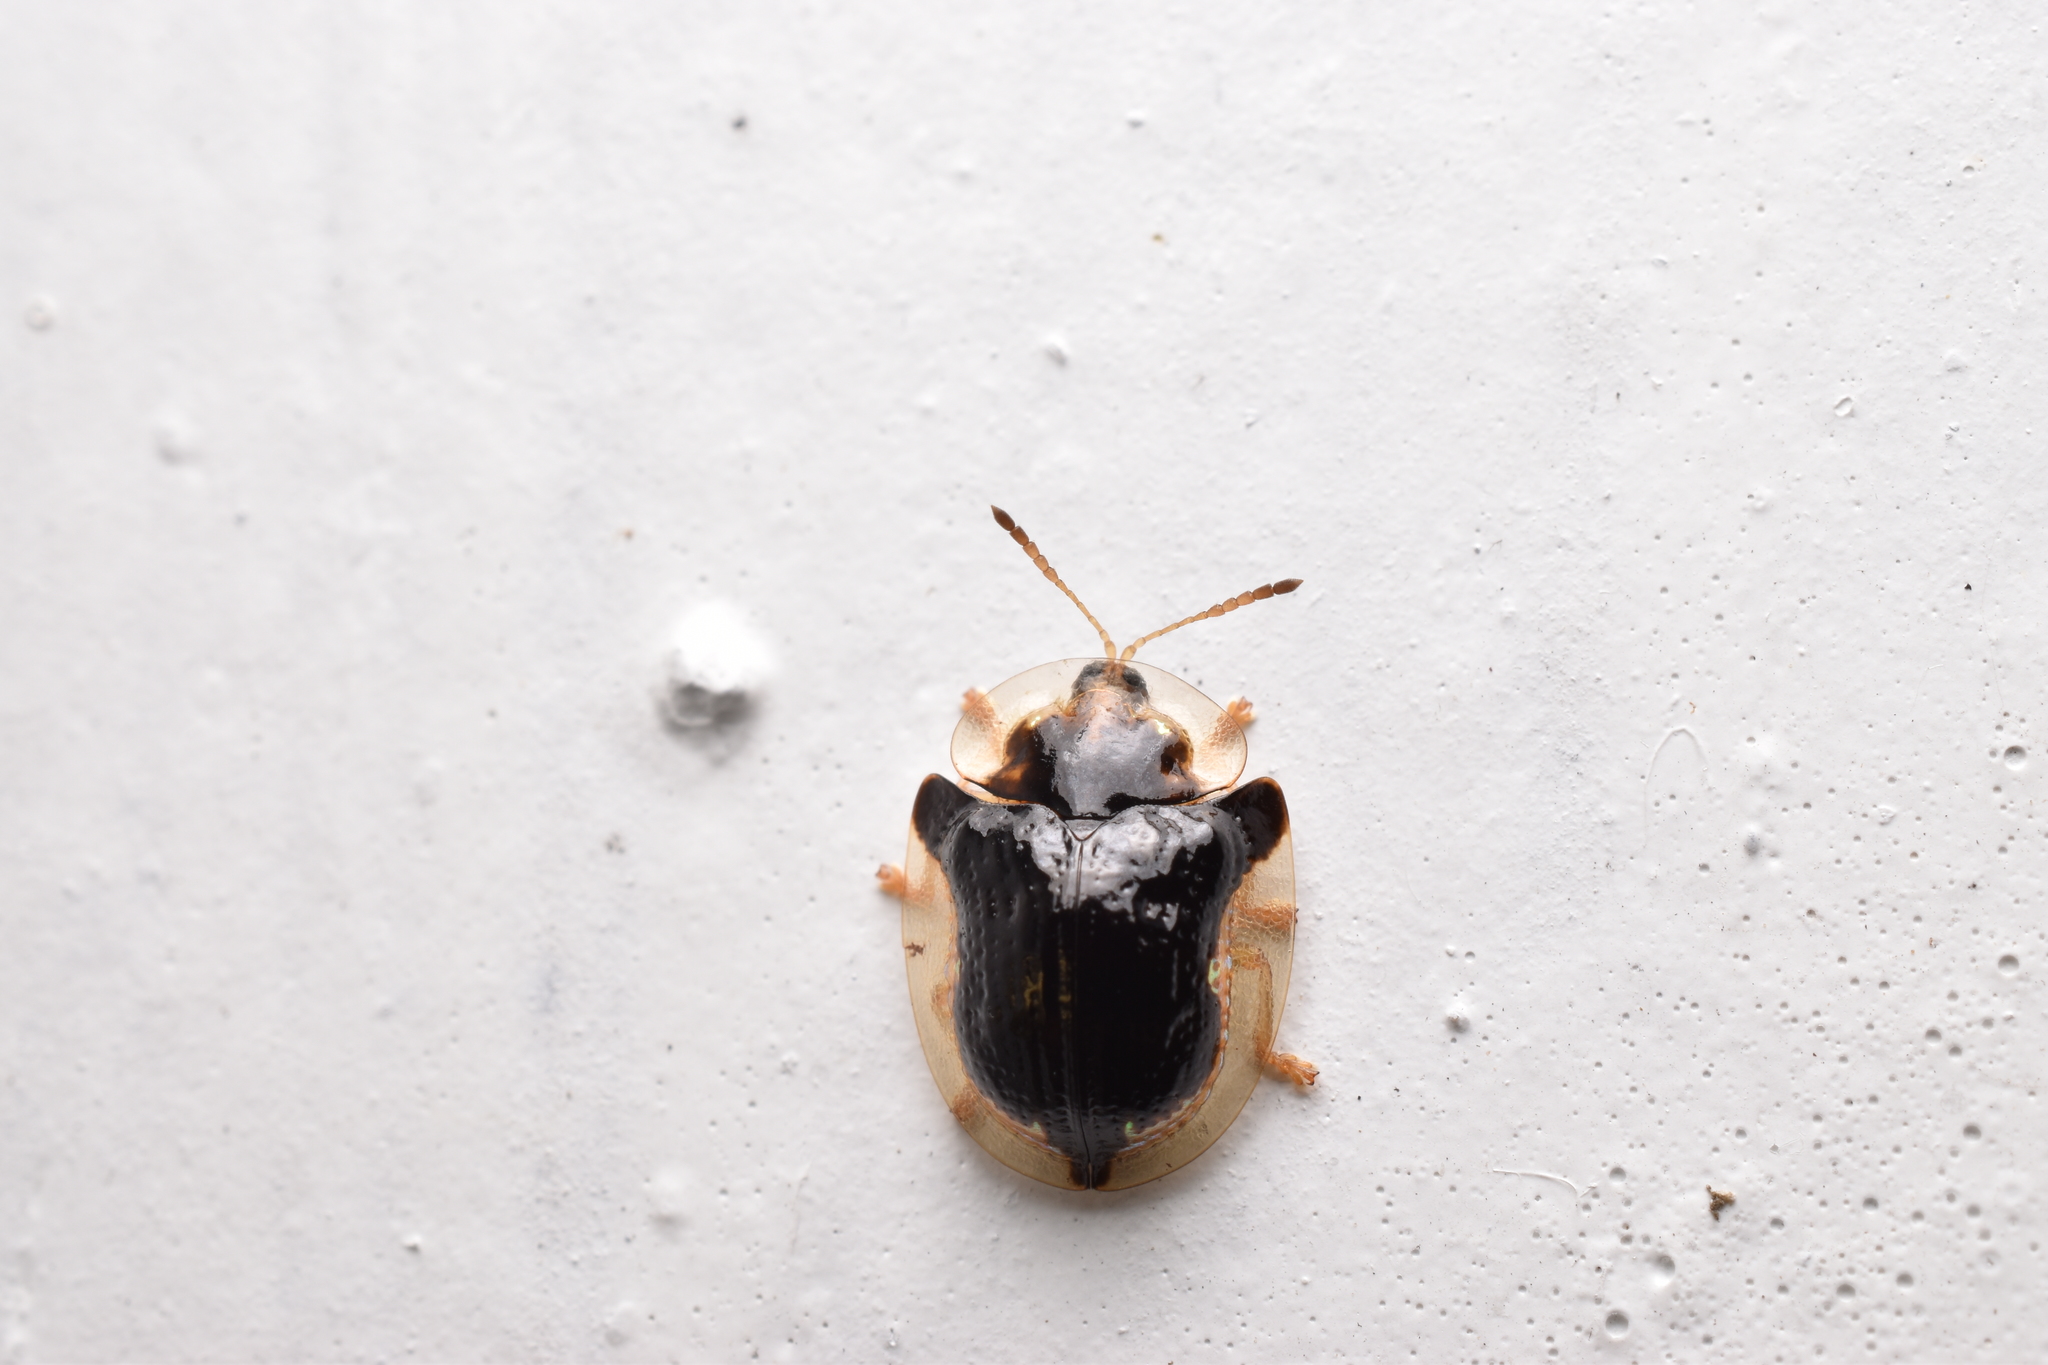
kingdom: Animalia
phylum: Arthropoda
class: Insecta
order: Coleoptera
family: Chrysomelidae
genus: Deloyala
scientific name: Deloyala guttata
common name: Mottled tortoise beetle
